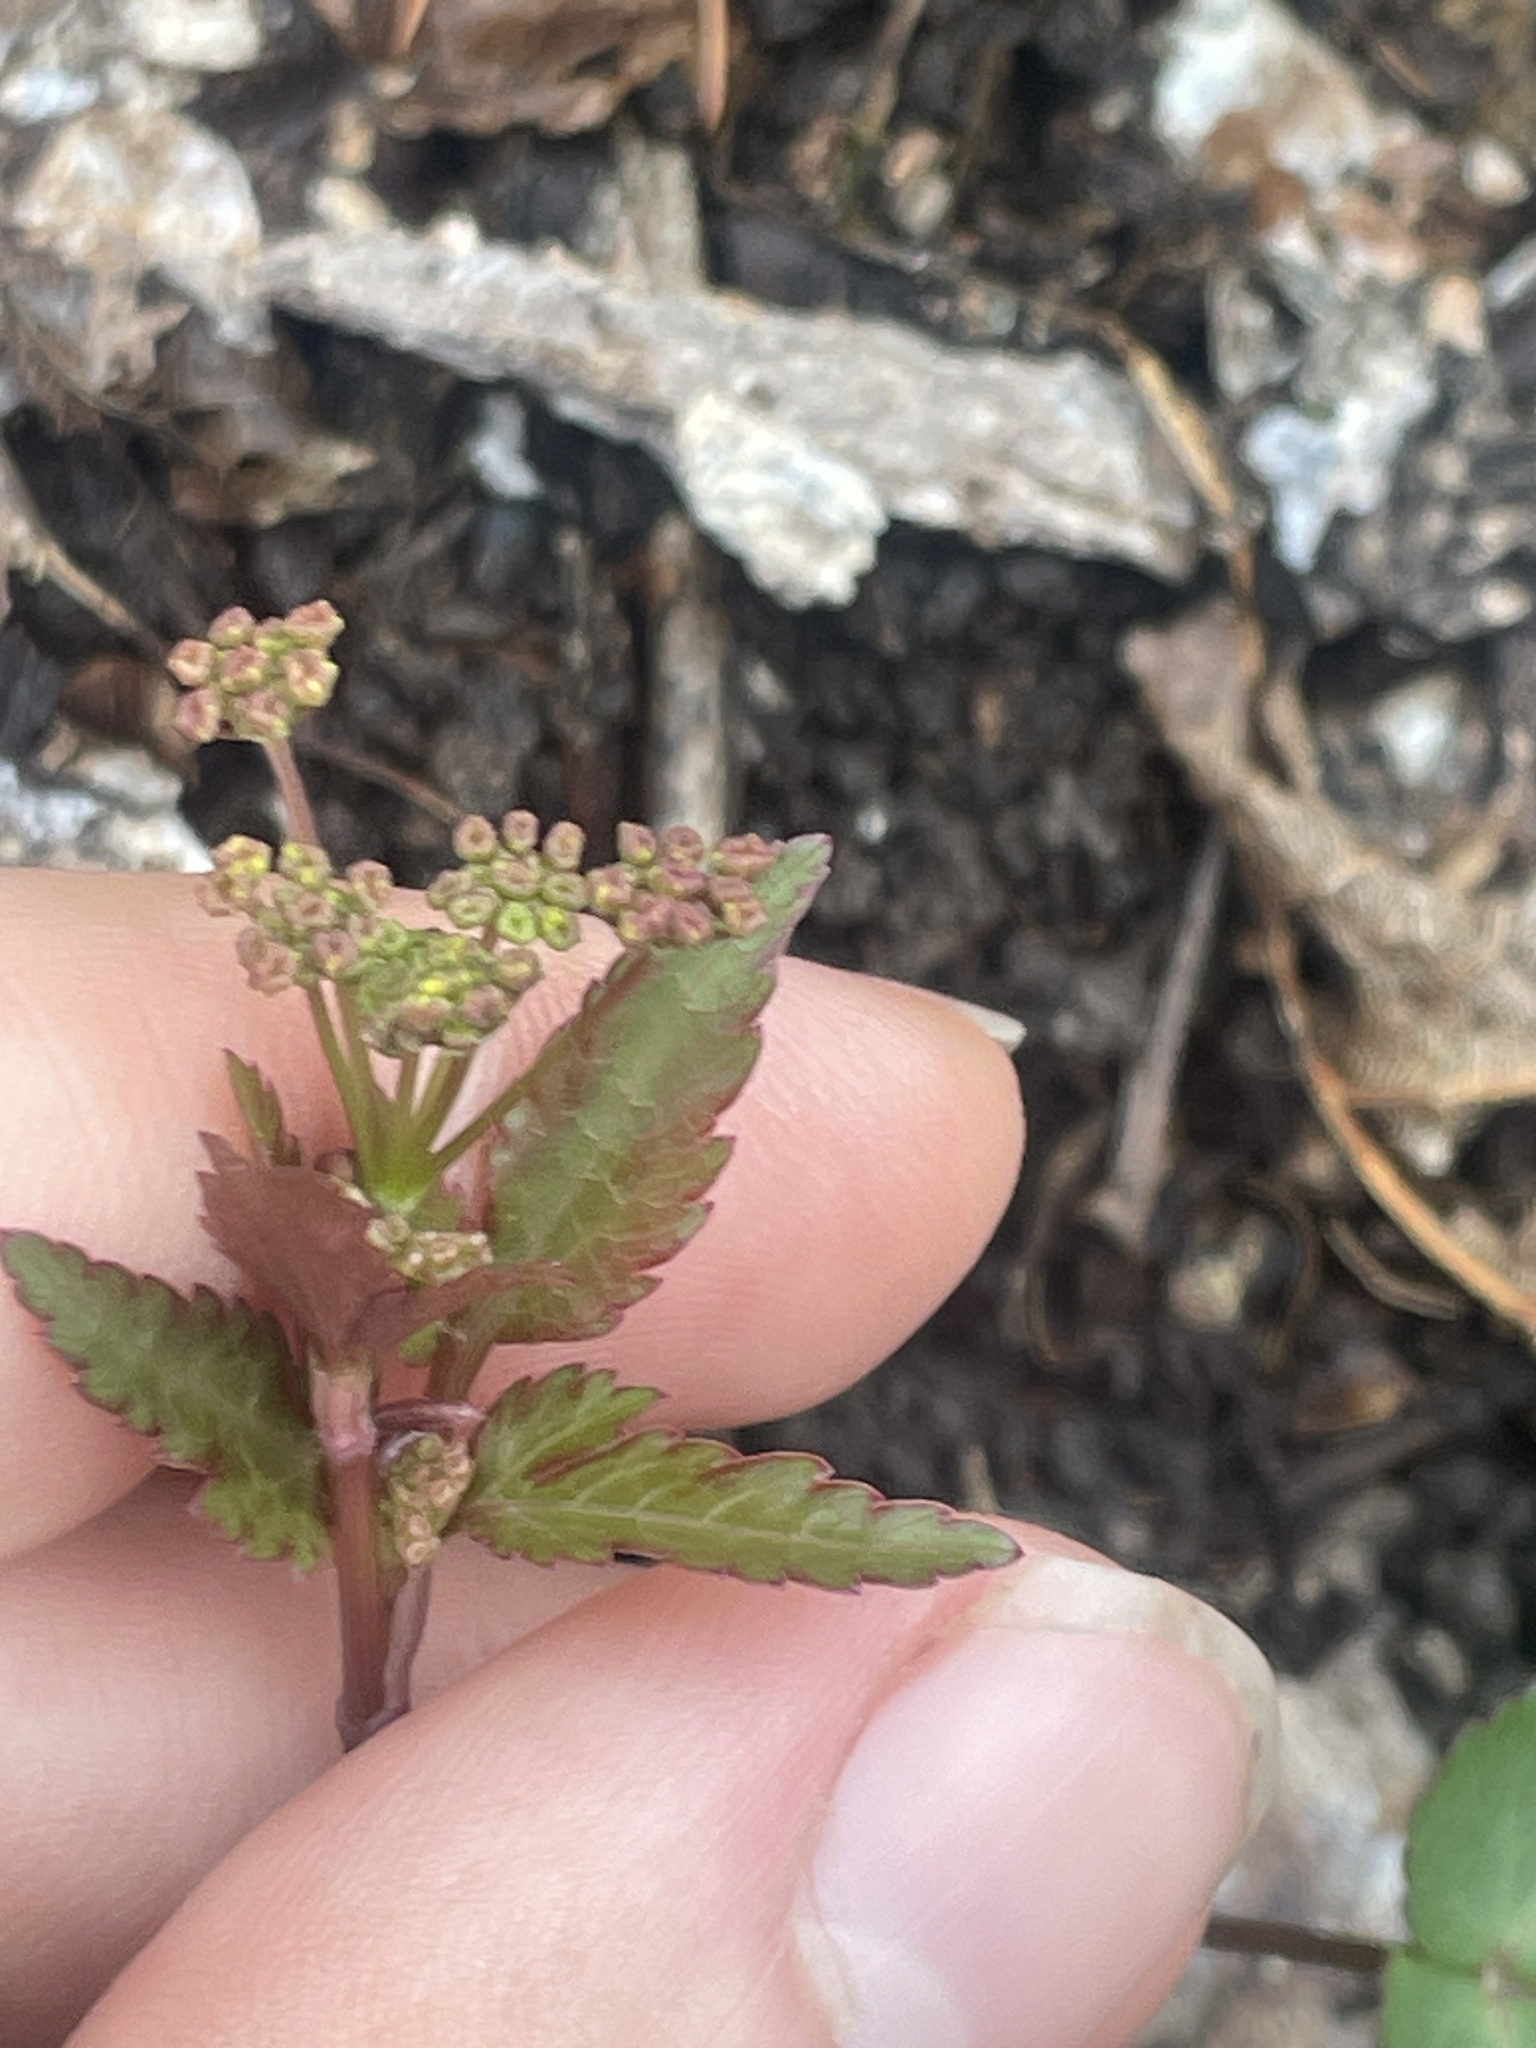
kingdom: Plantae
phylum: Tracheophyta
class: Magnoliopsida
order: Apiales
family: Apiaceae
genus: Thaspium
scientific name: Thaspium trifoliatum
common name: Purple meadow-parsnip
